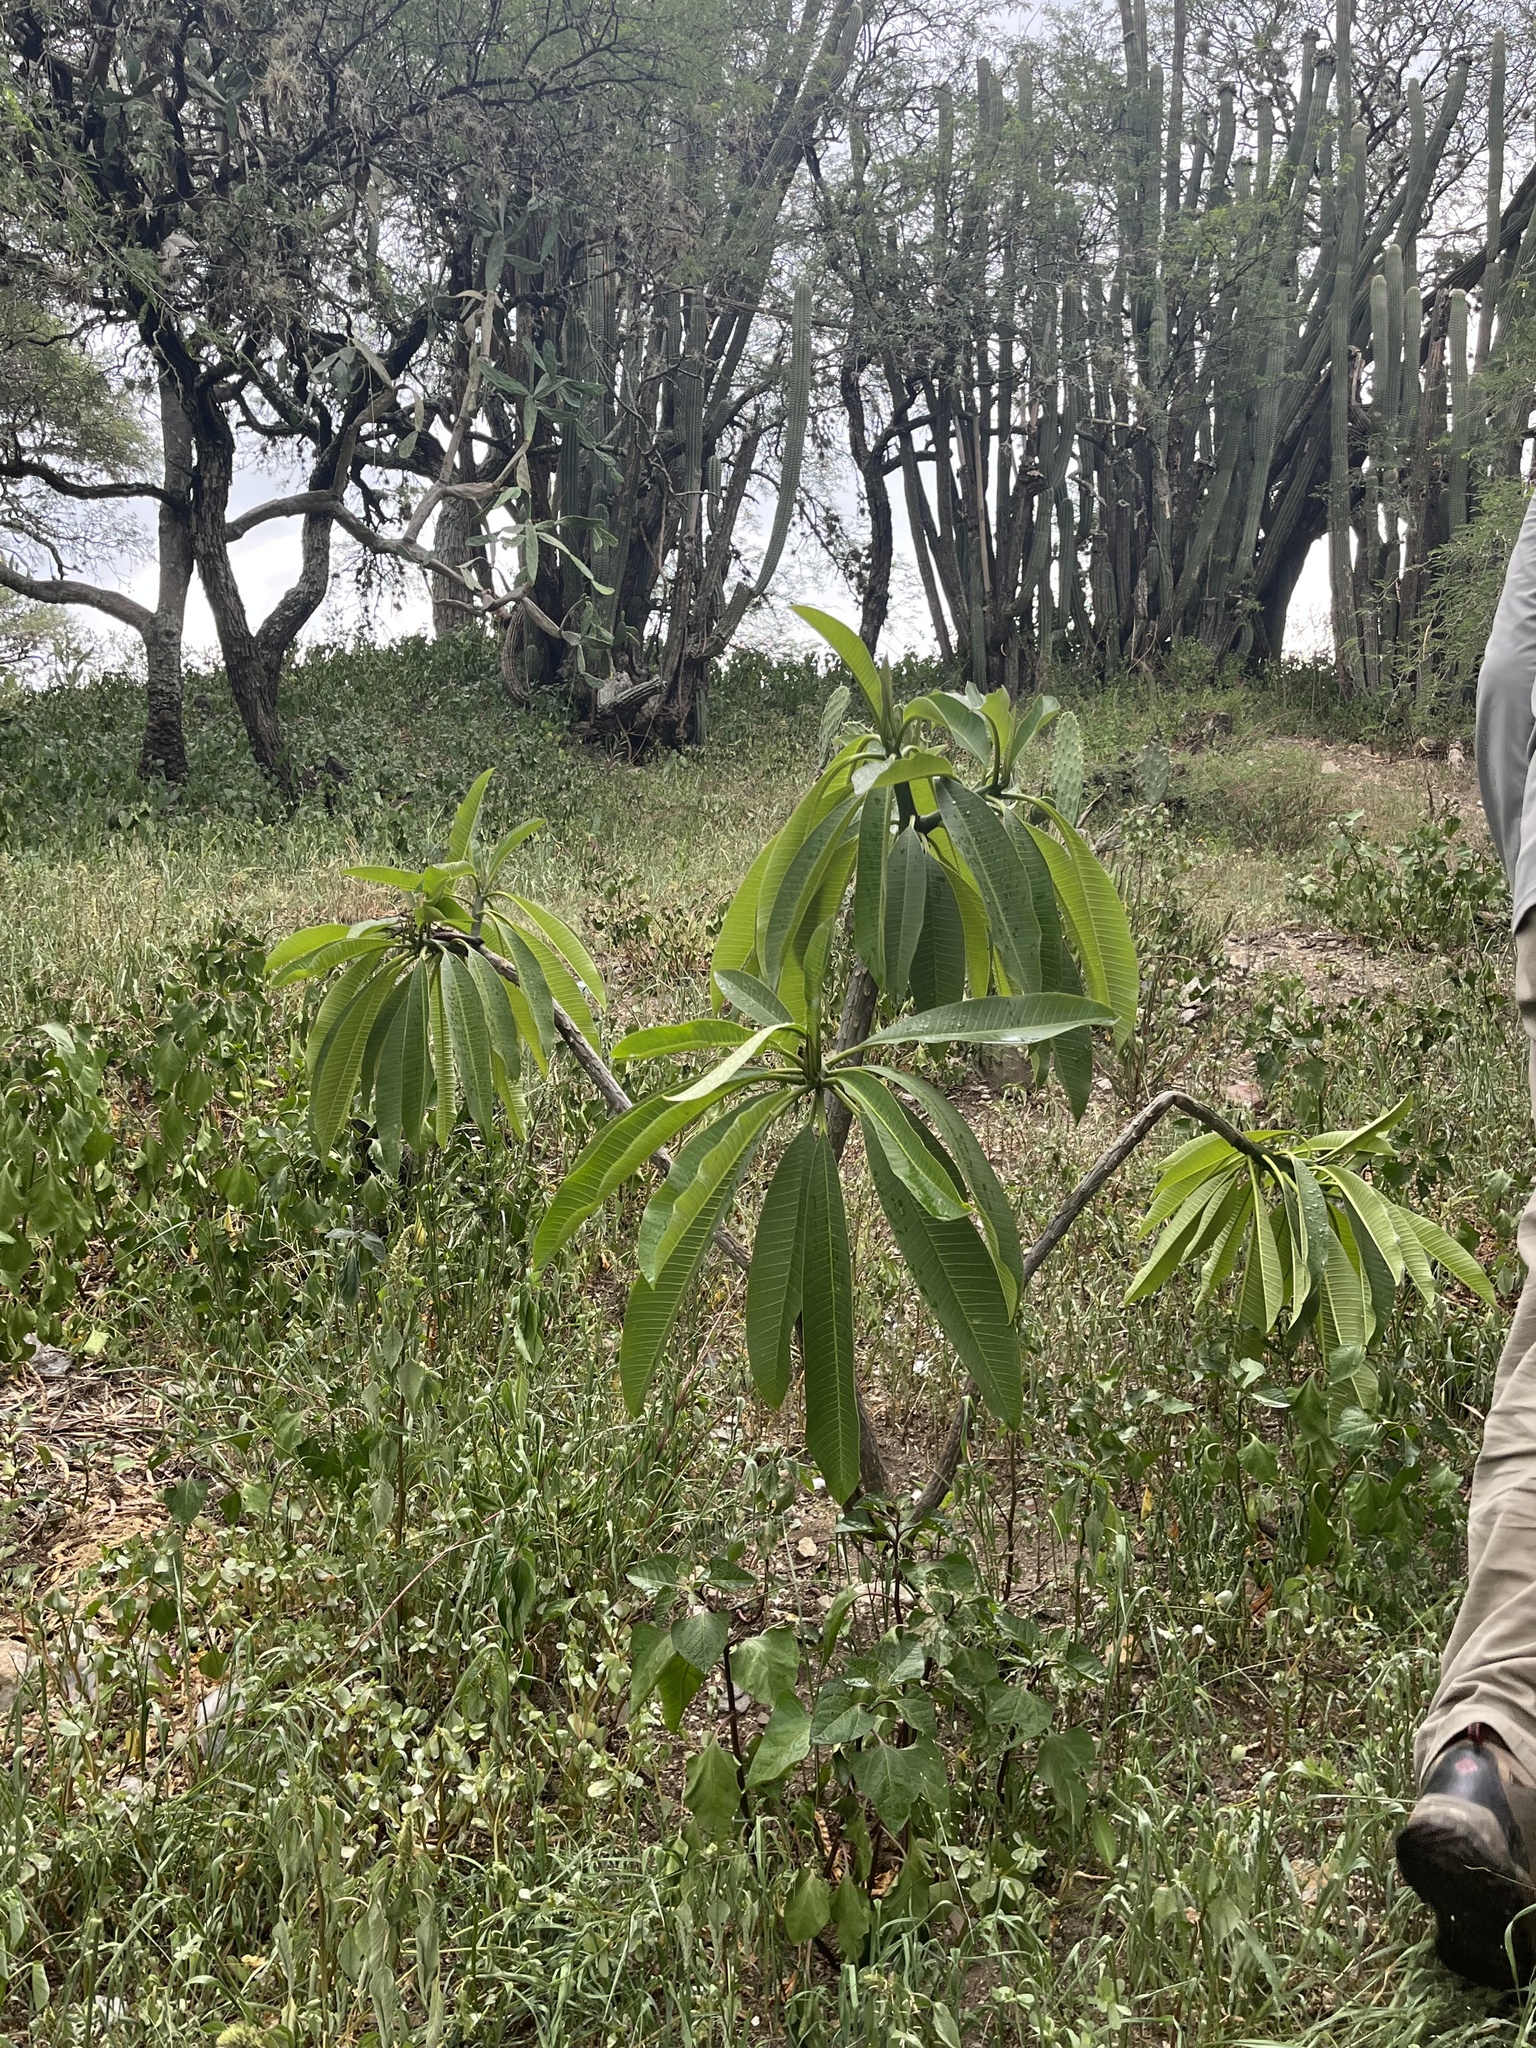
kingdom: Plantae
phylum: Tracheophyta
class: Magnoliopsida
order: Gentianales
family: Apocynaceae
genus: Plumeria
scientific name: Plumeria rubra
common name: Pagoda-tree
